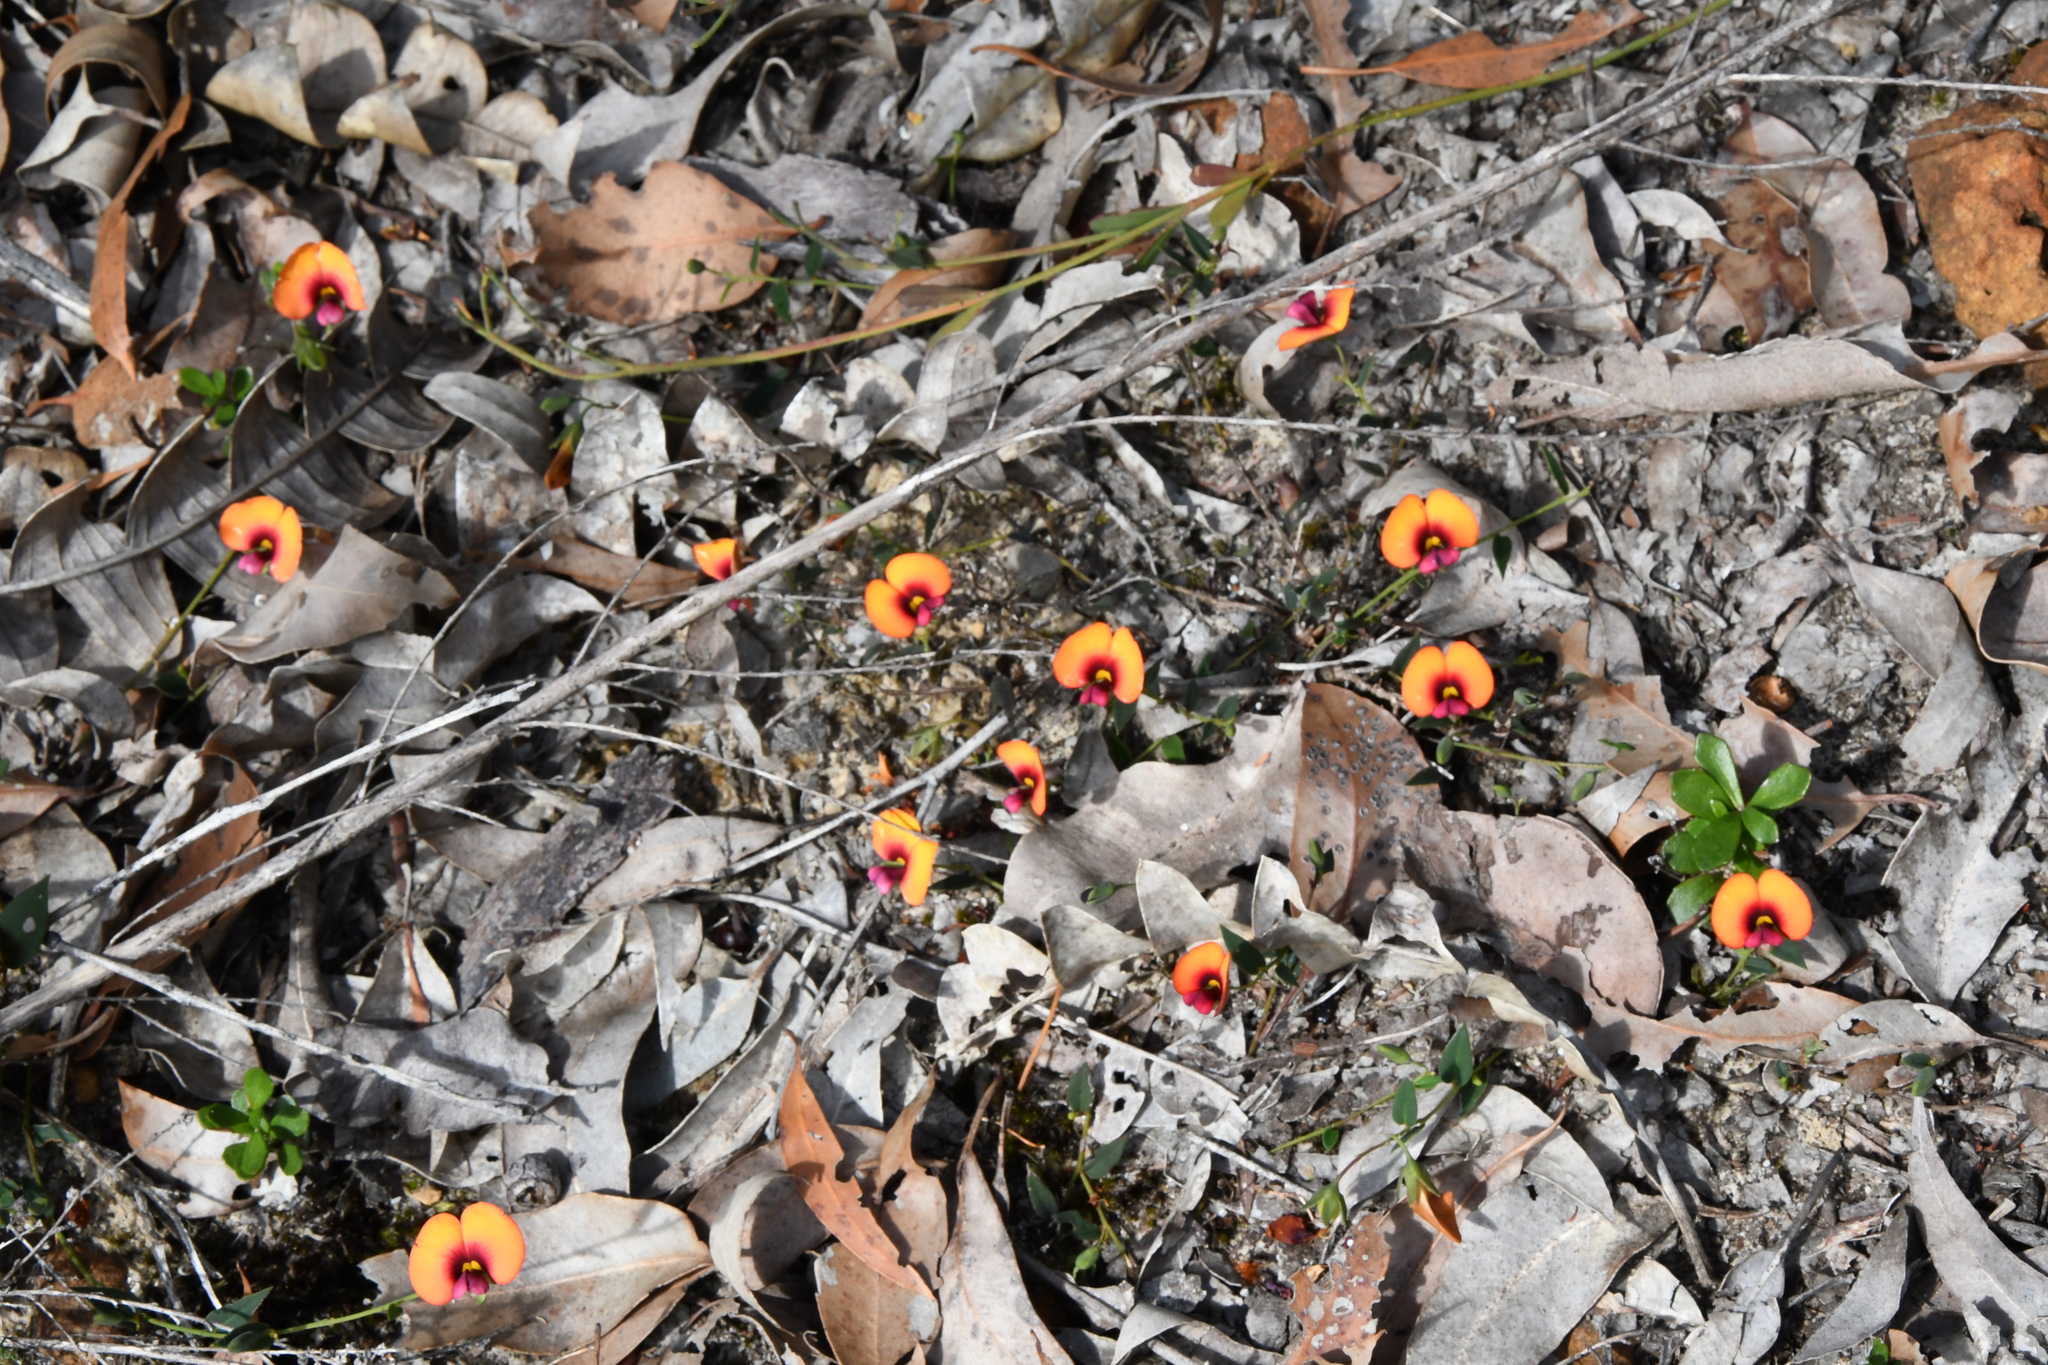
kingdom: Plantae
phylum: Tracheophyta
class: Magnoliopsida
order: Fabales
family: Fabaceae
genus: Gompholobium
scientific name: Gompholobium ovatum
